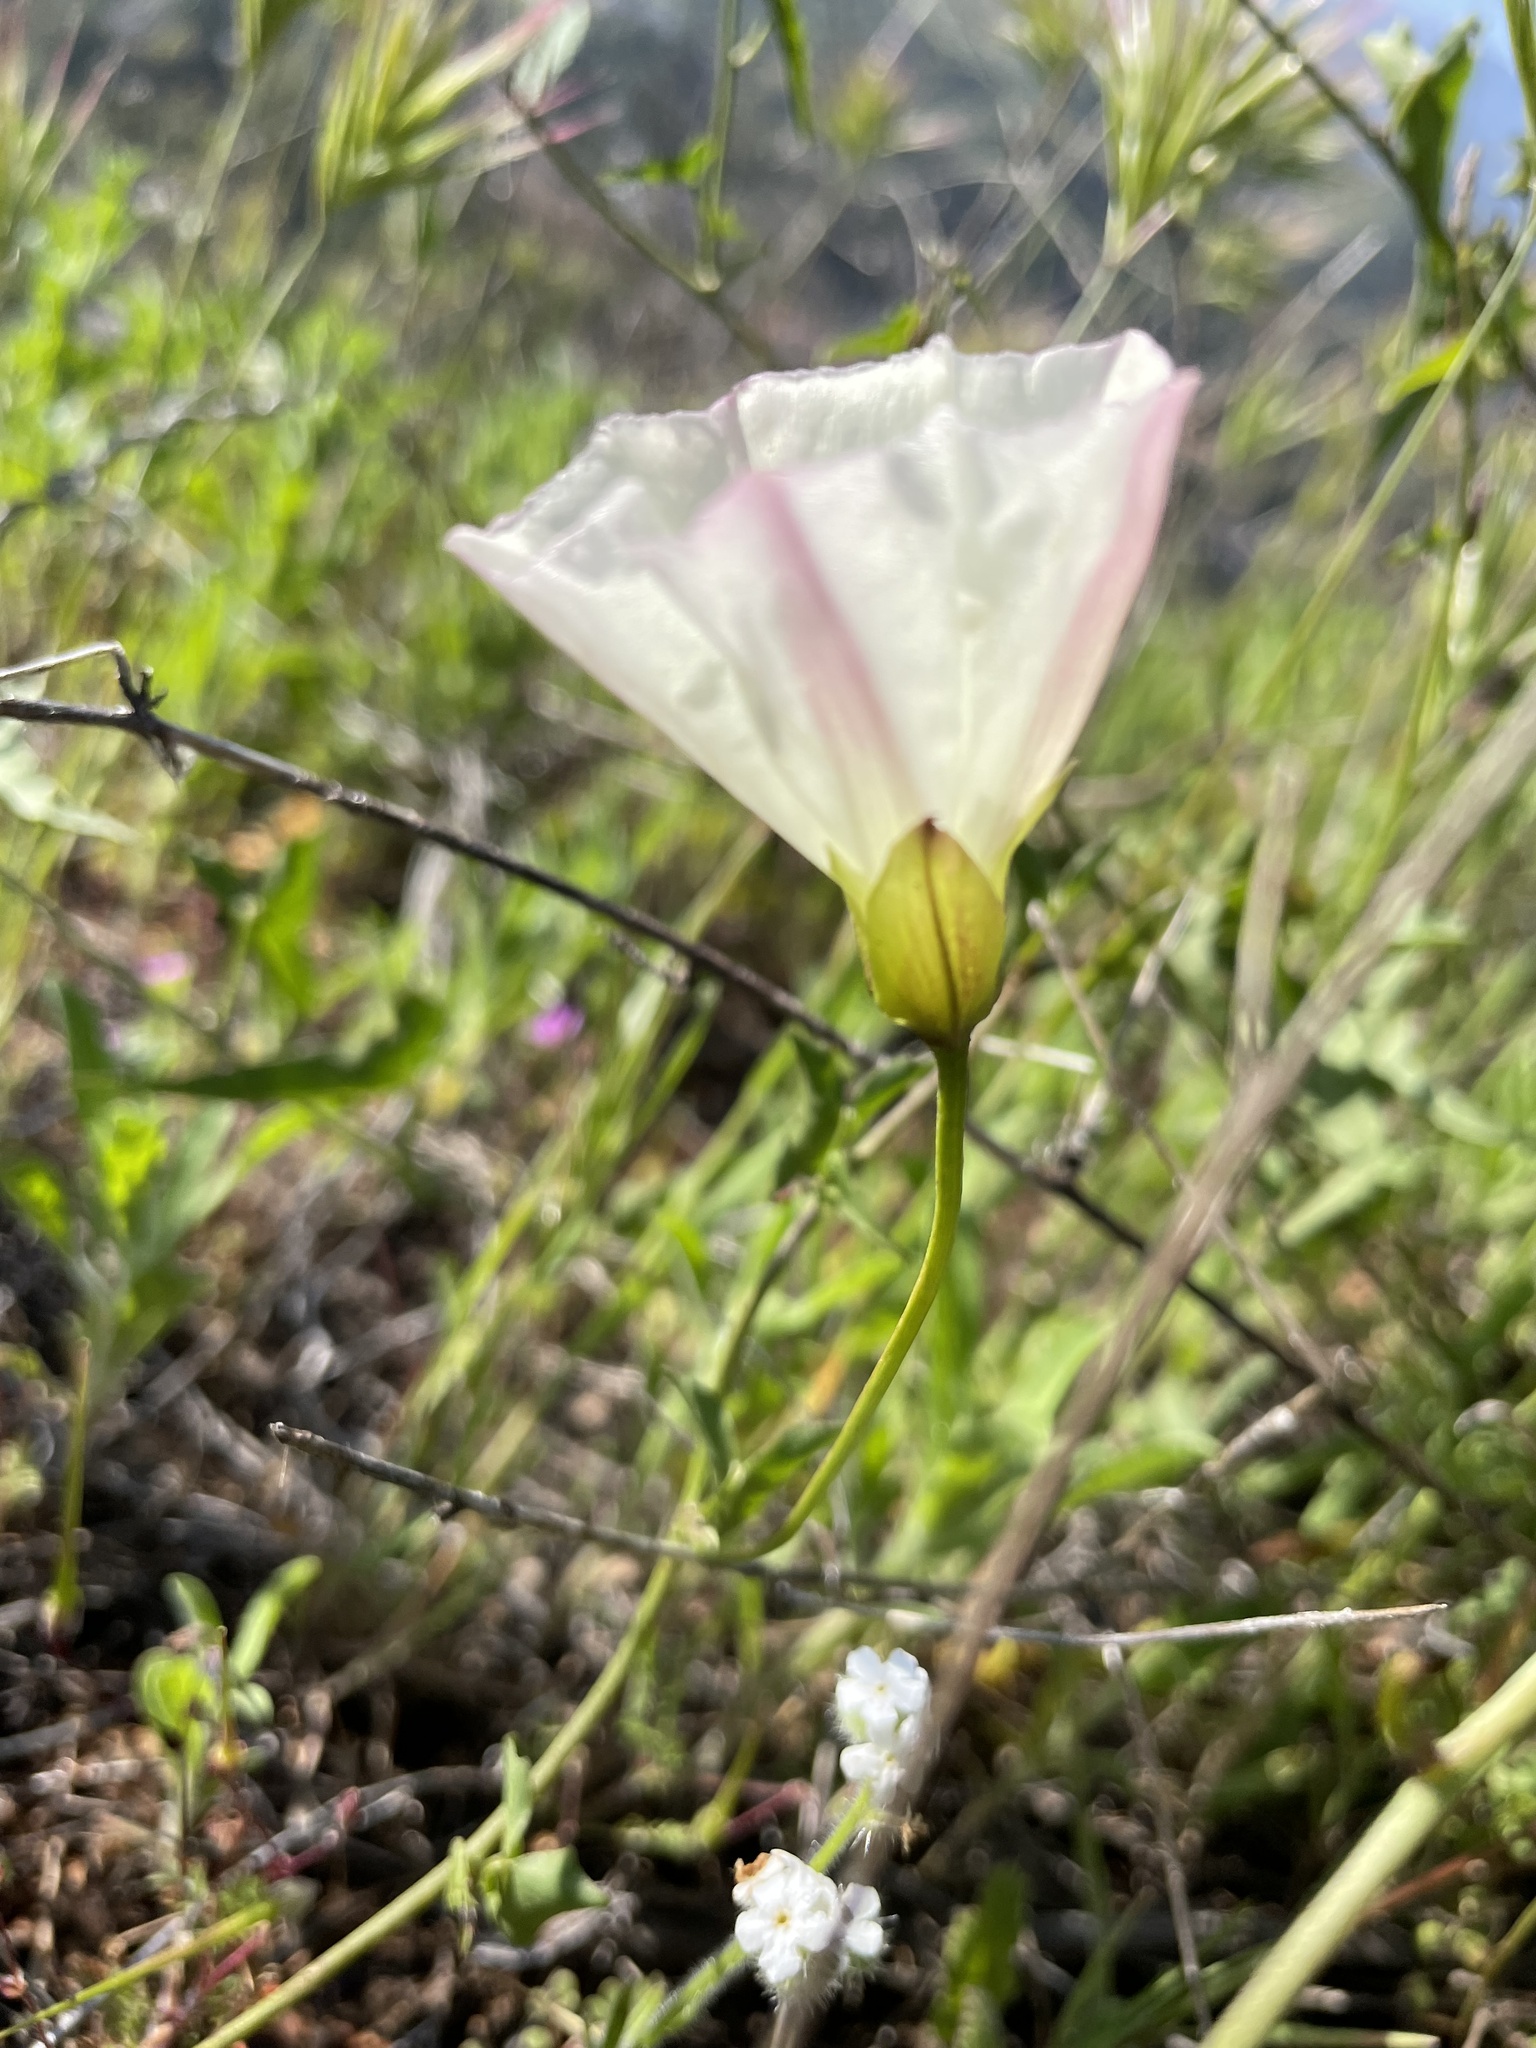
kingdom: Plantae
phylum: Tracheophyta
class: Magnoliopsida
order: Solanales
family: Convolvulaceae
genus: Calystegia
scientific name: Calystegia macrostegia
